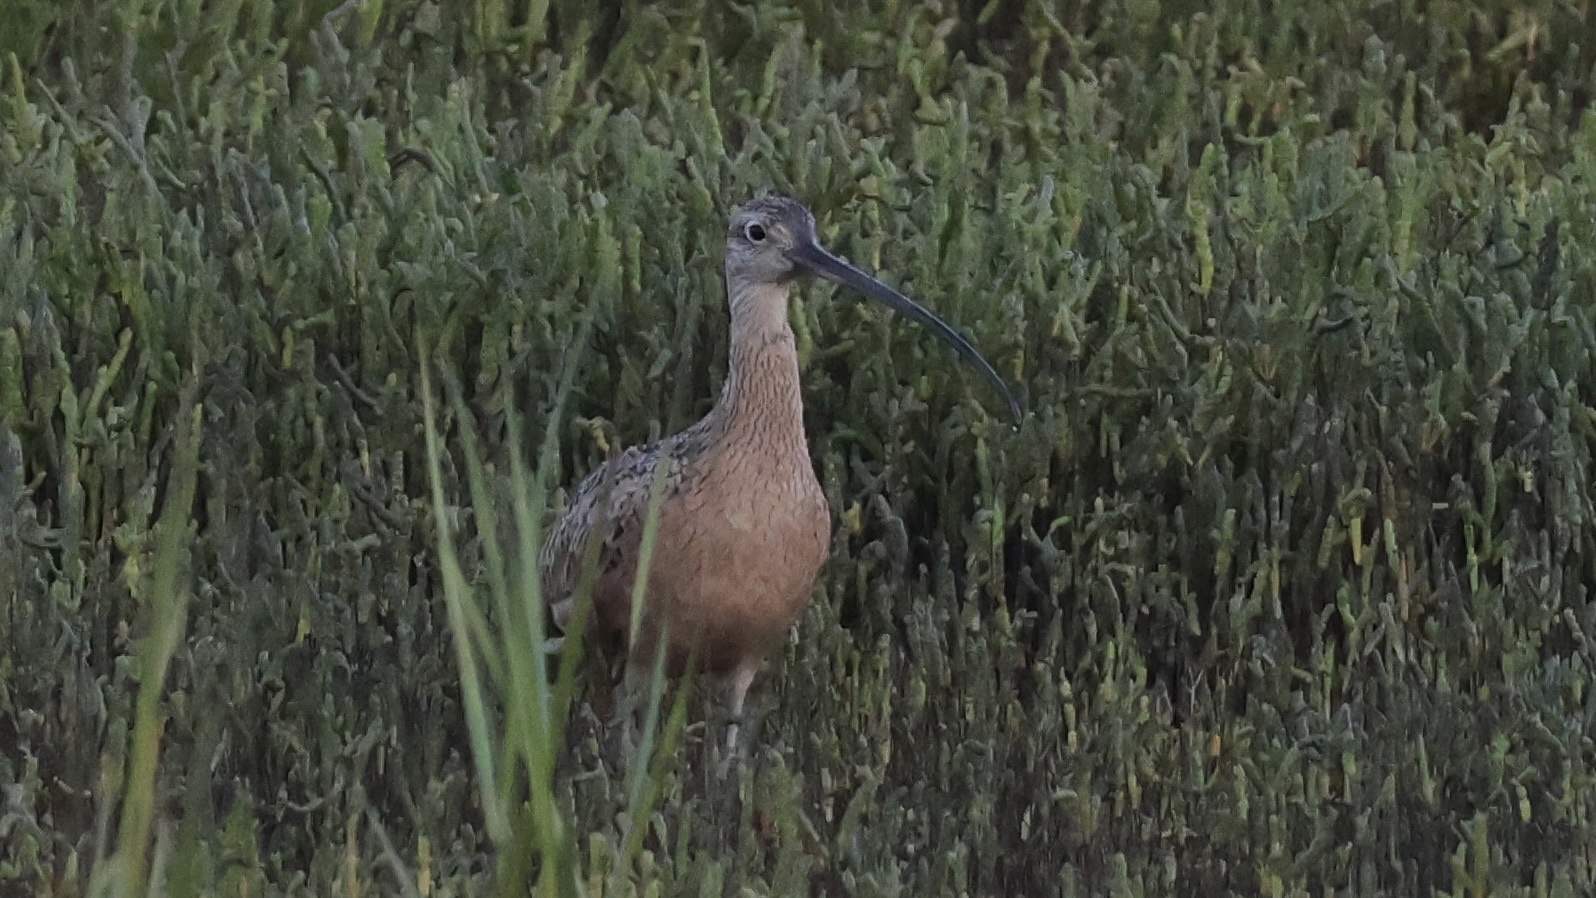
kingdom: Animalia
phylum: Chordata
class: Aves
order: Charadriiformes
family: Scolopacidae
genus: Numenius
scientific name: Numenius americanus
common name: Long-billed curlew
